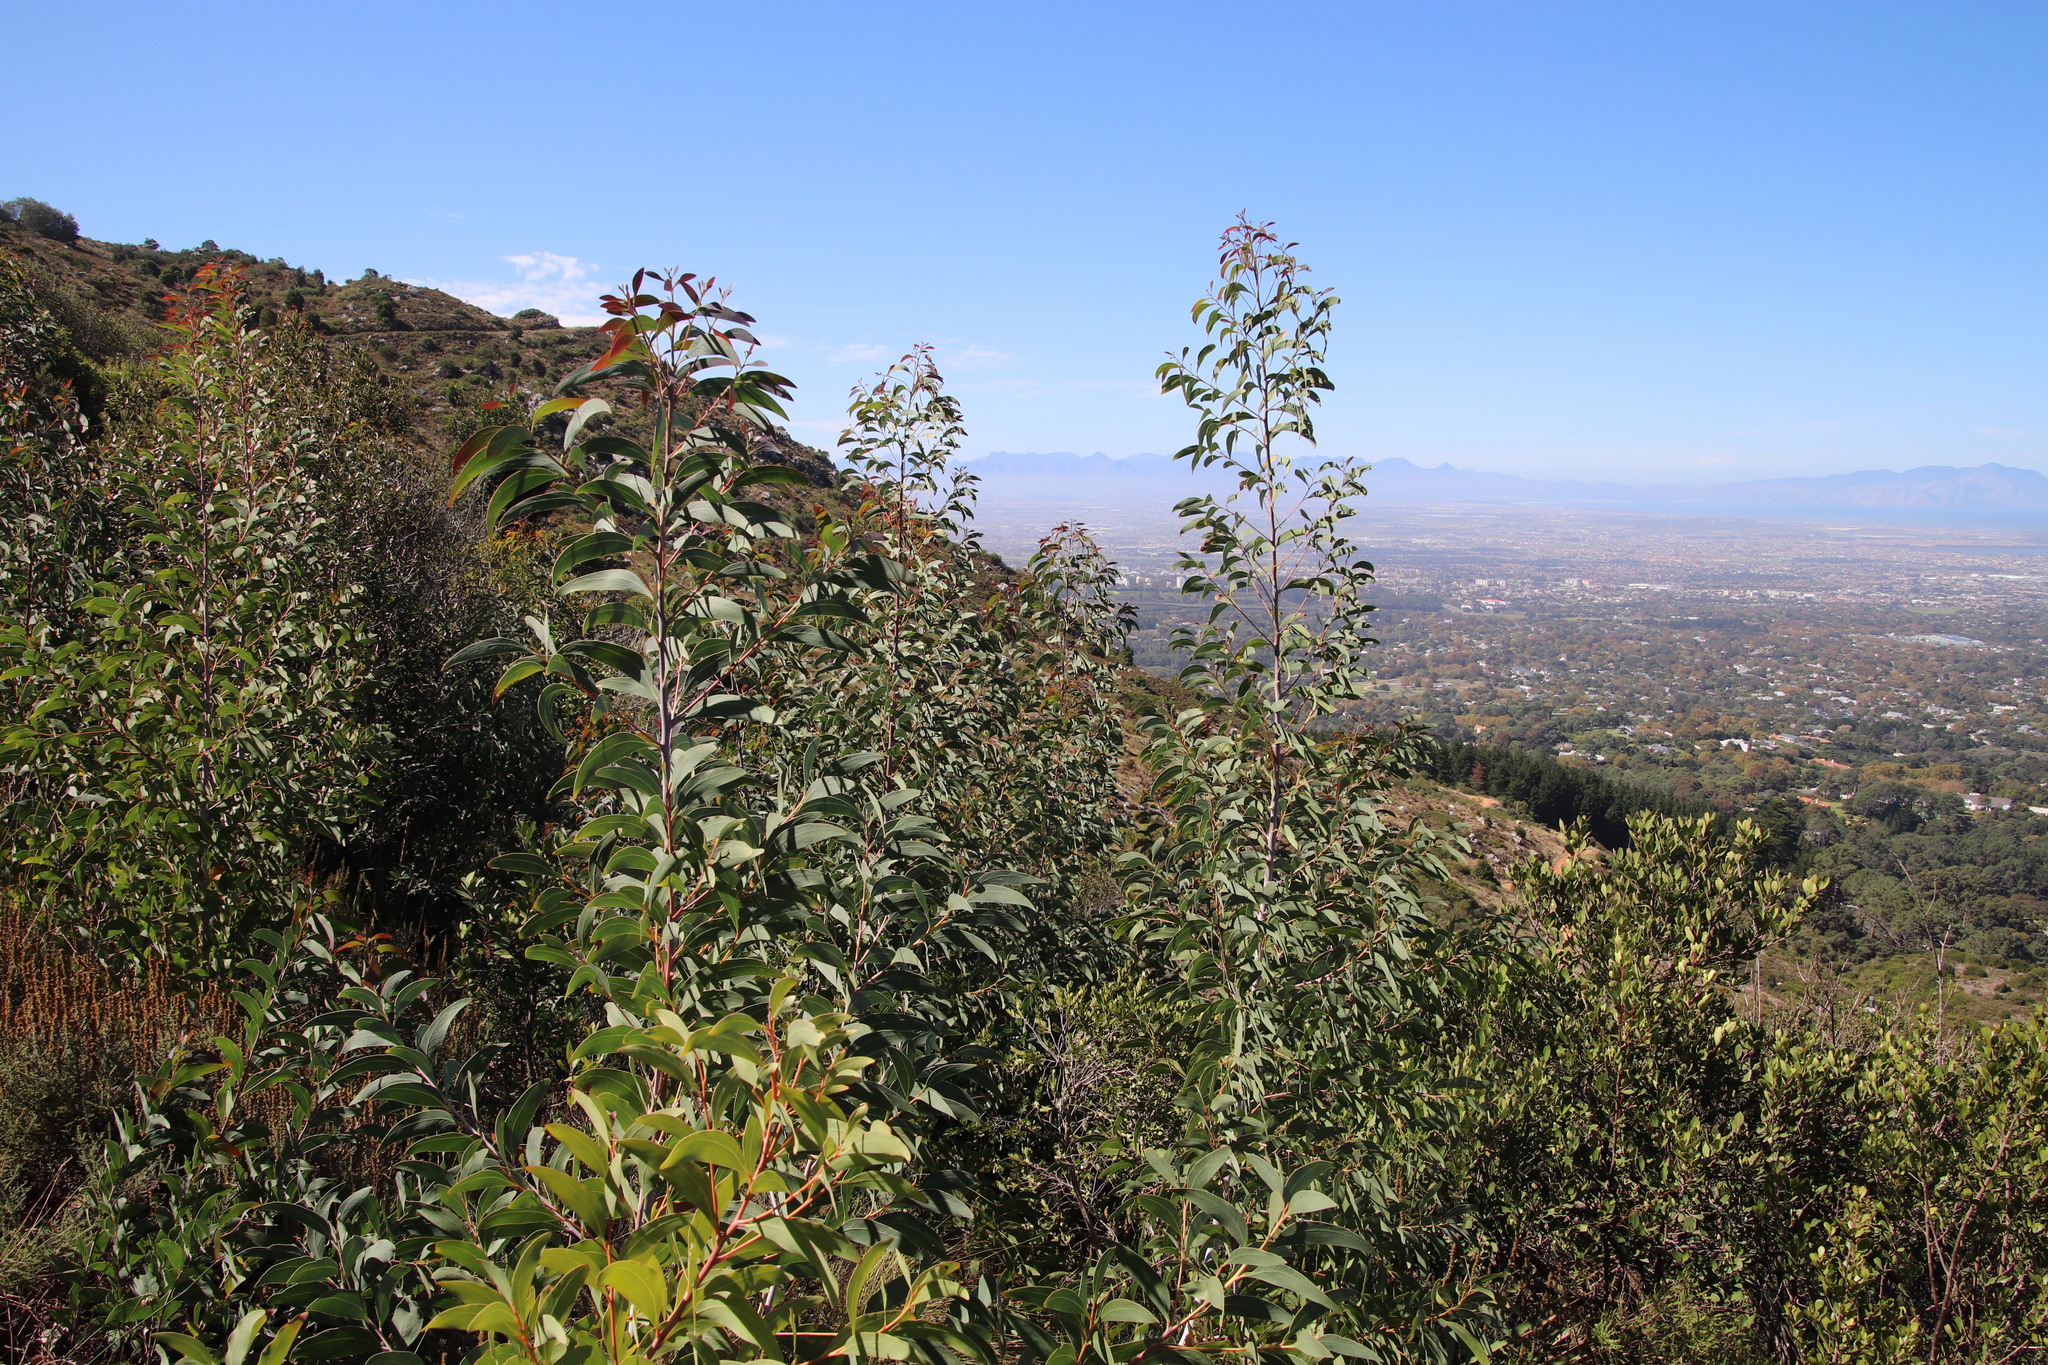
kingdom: Plantae
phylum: Tracheophyta
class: Magnoliopsida
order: Fabales
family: Fabaceae
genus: Acacia
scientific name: Acacia falciformis
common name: Tanning wattle
